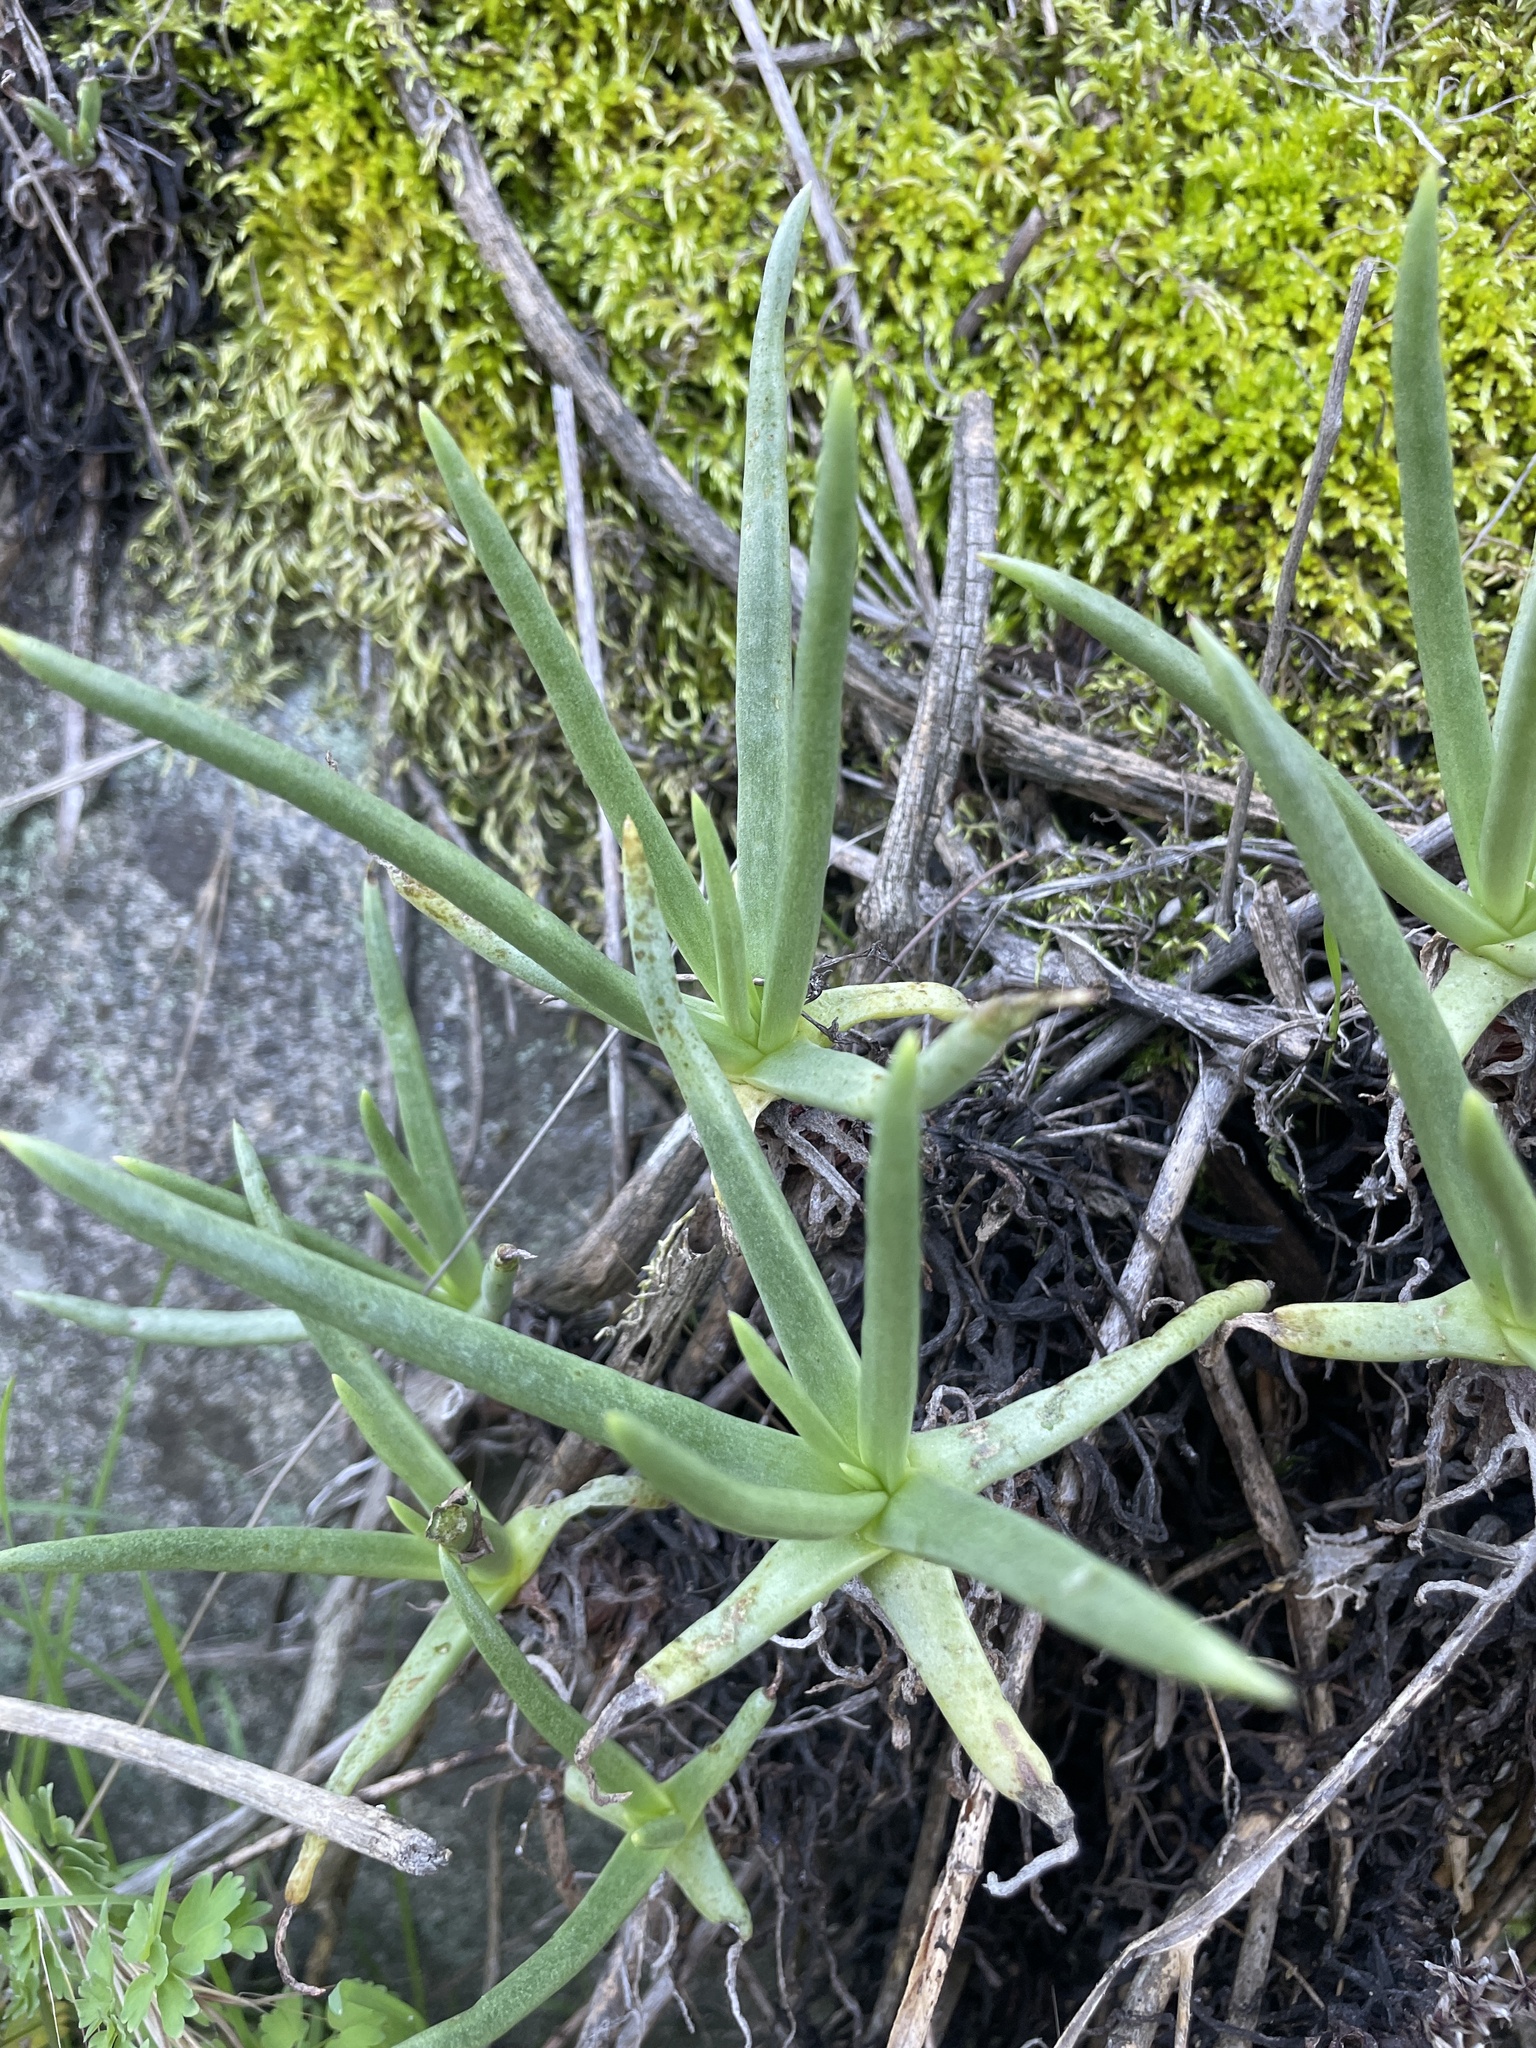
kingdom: Plantae
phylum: Tracheophyta
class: Magnoliopsida
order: Saxifragales
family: Crassulaceae
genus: Dudleya
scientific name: Dudleya edulis
